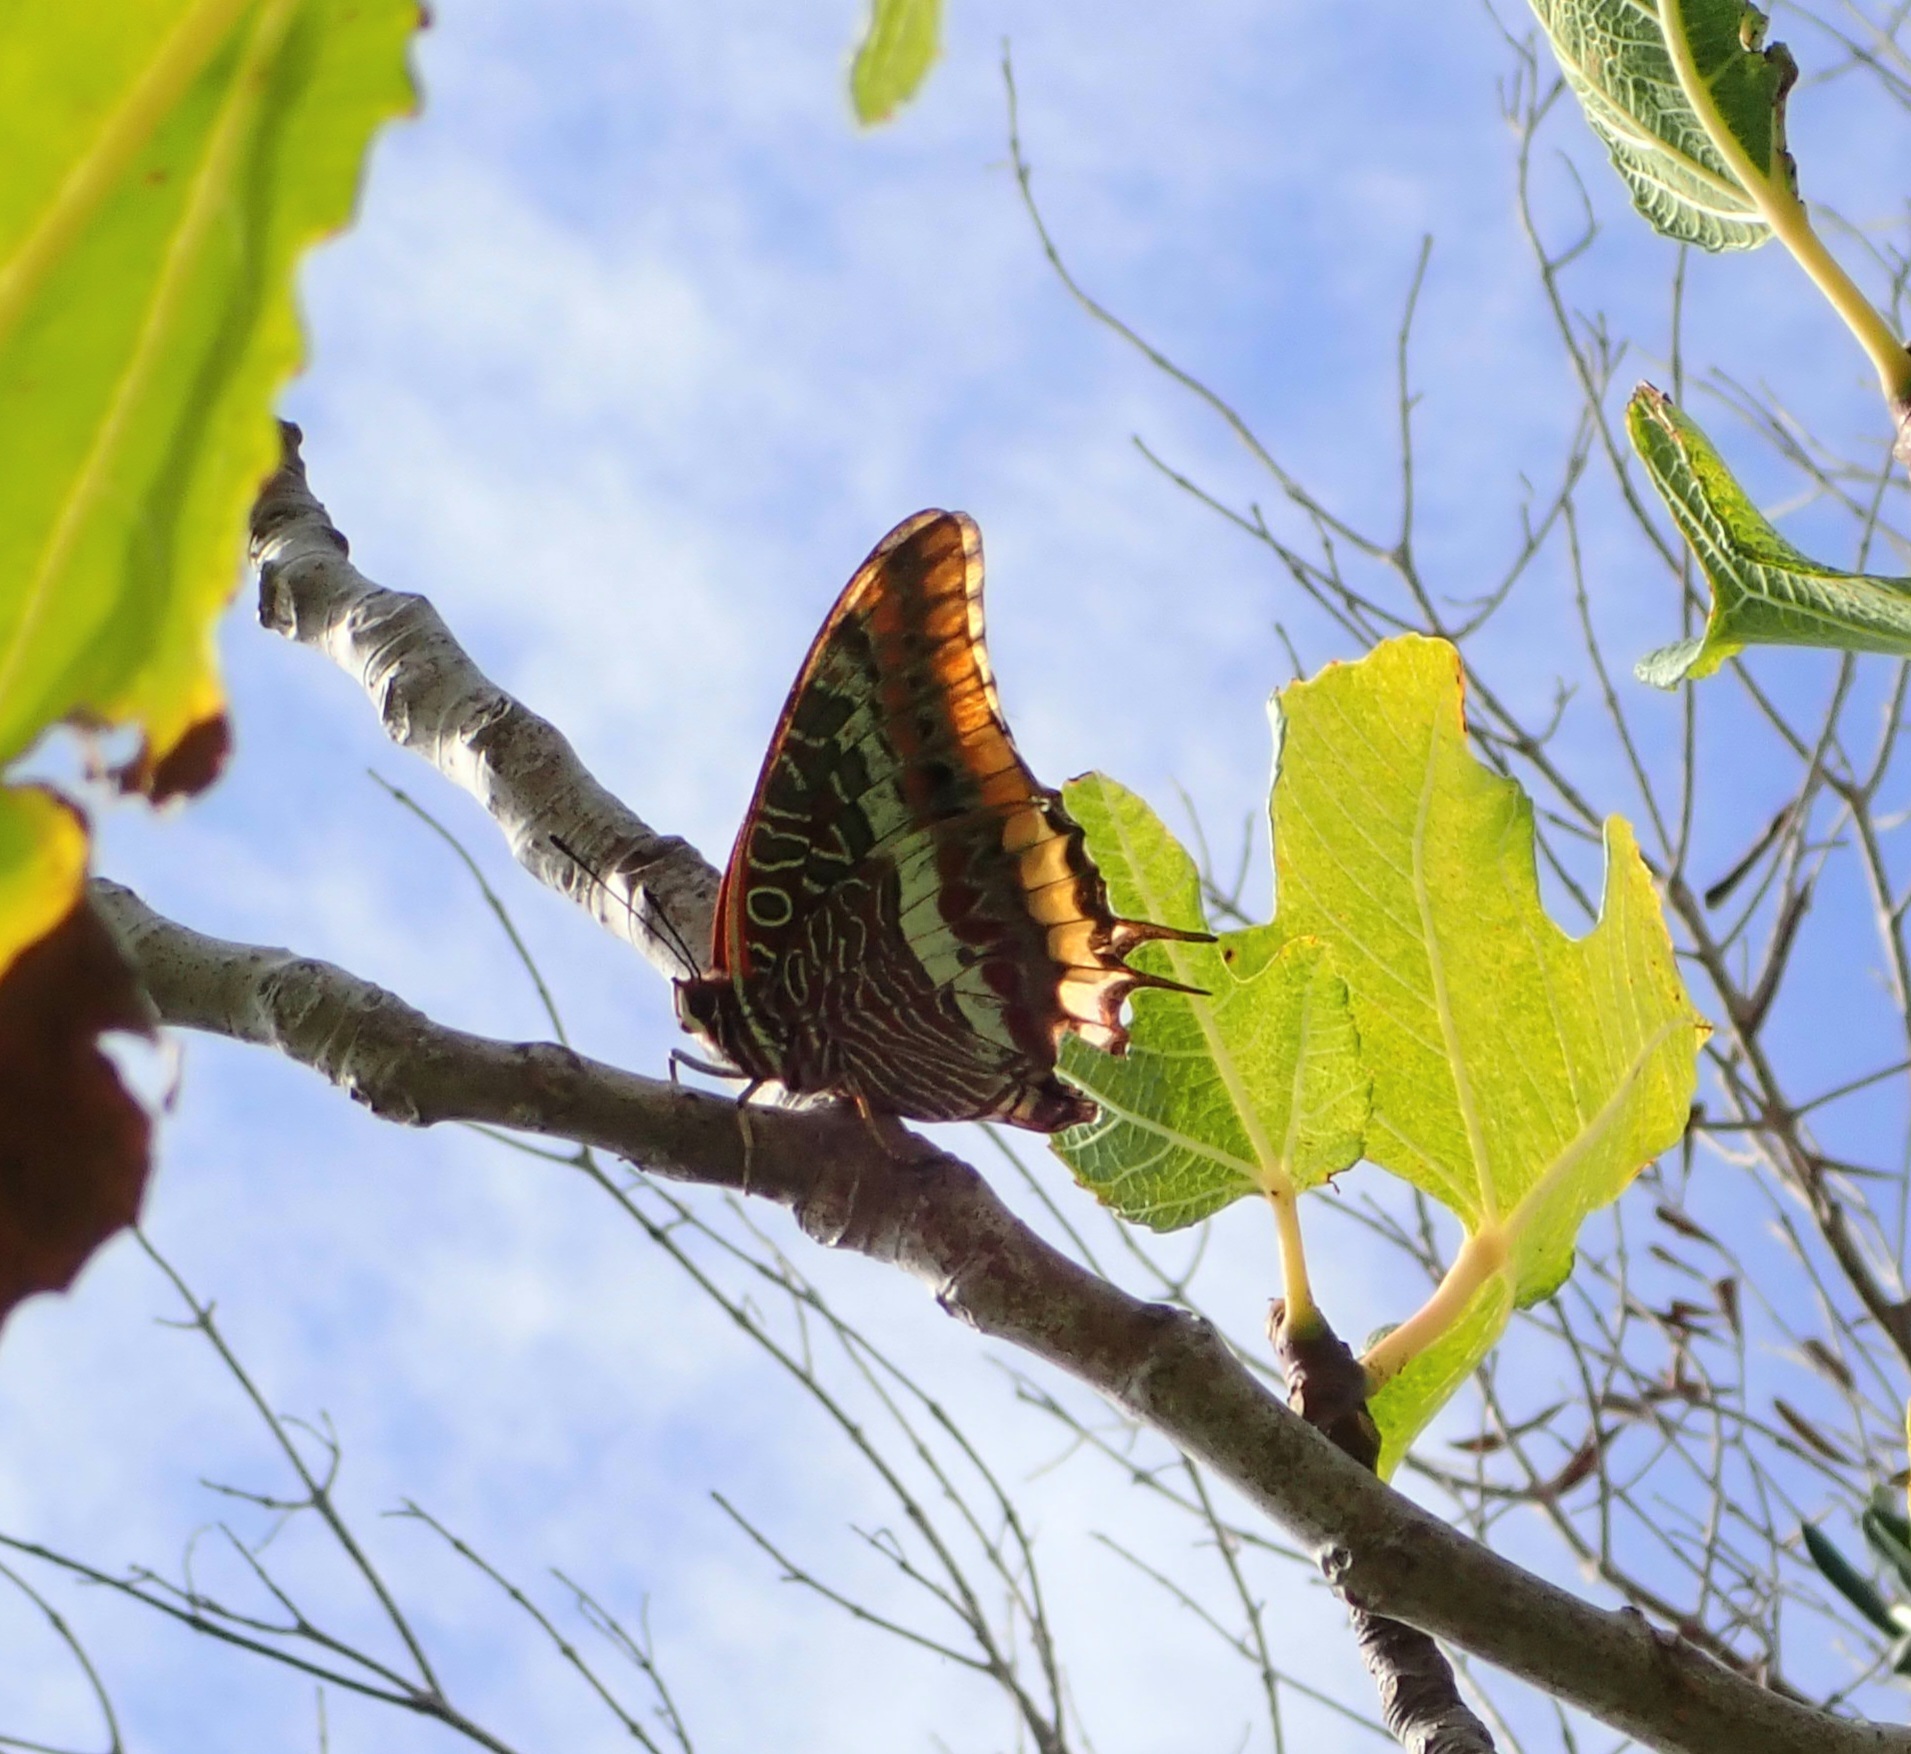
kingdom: Animalia
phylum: Arthropoda
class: Insecta
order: Lepidoptera
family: Nymphalidae
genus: Charaxes
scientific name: Charaxes jasius
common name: Two tailed pasha
